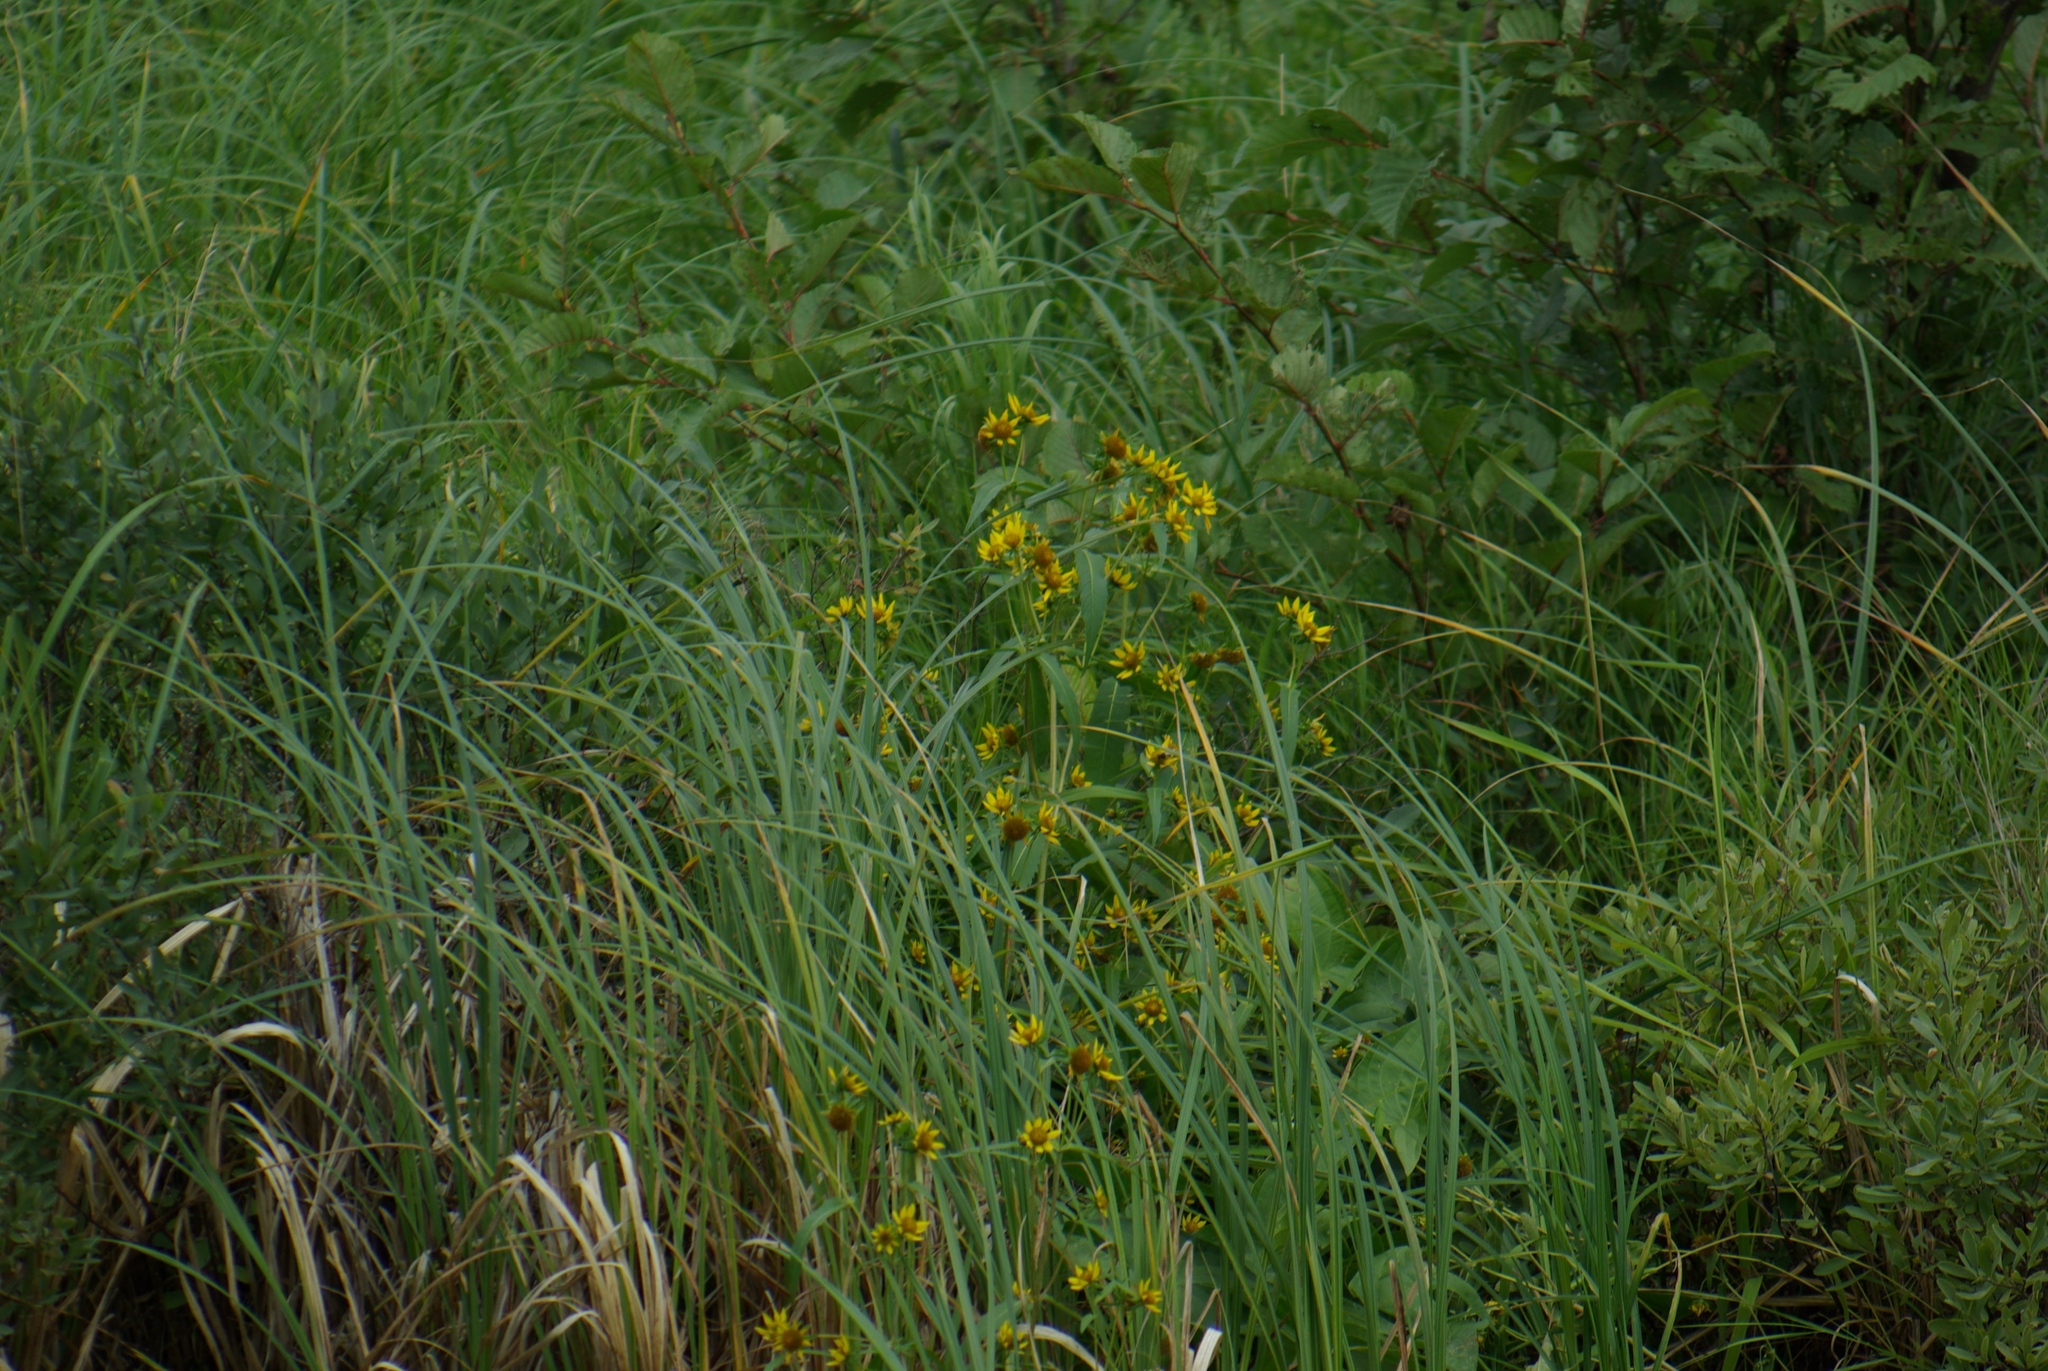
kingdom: Plantae
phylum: Tracheophyta
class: Magnoliopsida
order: Asterales
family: Asteraceae
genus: Bidens
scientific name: Bidens cernua
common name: Nodding bur-marigold
